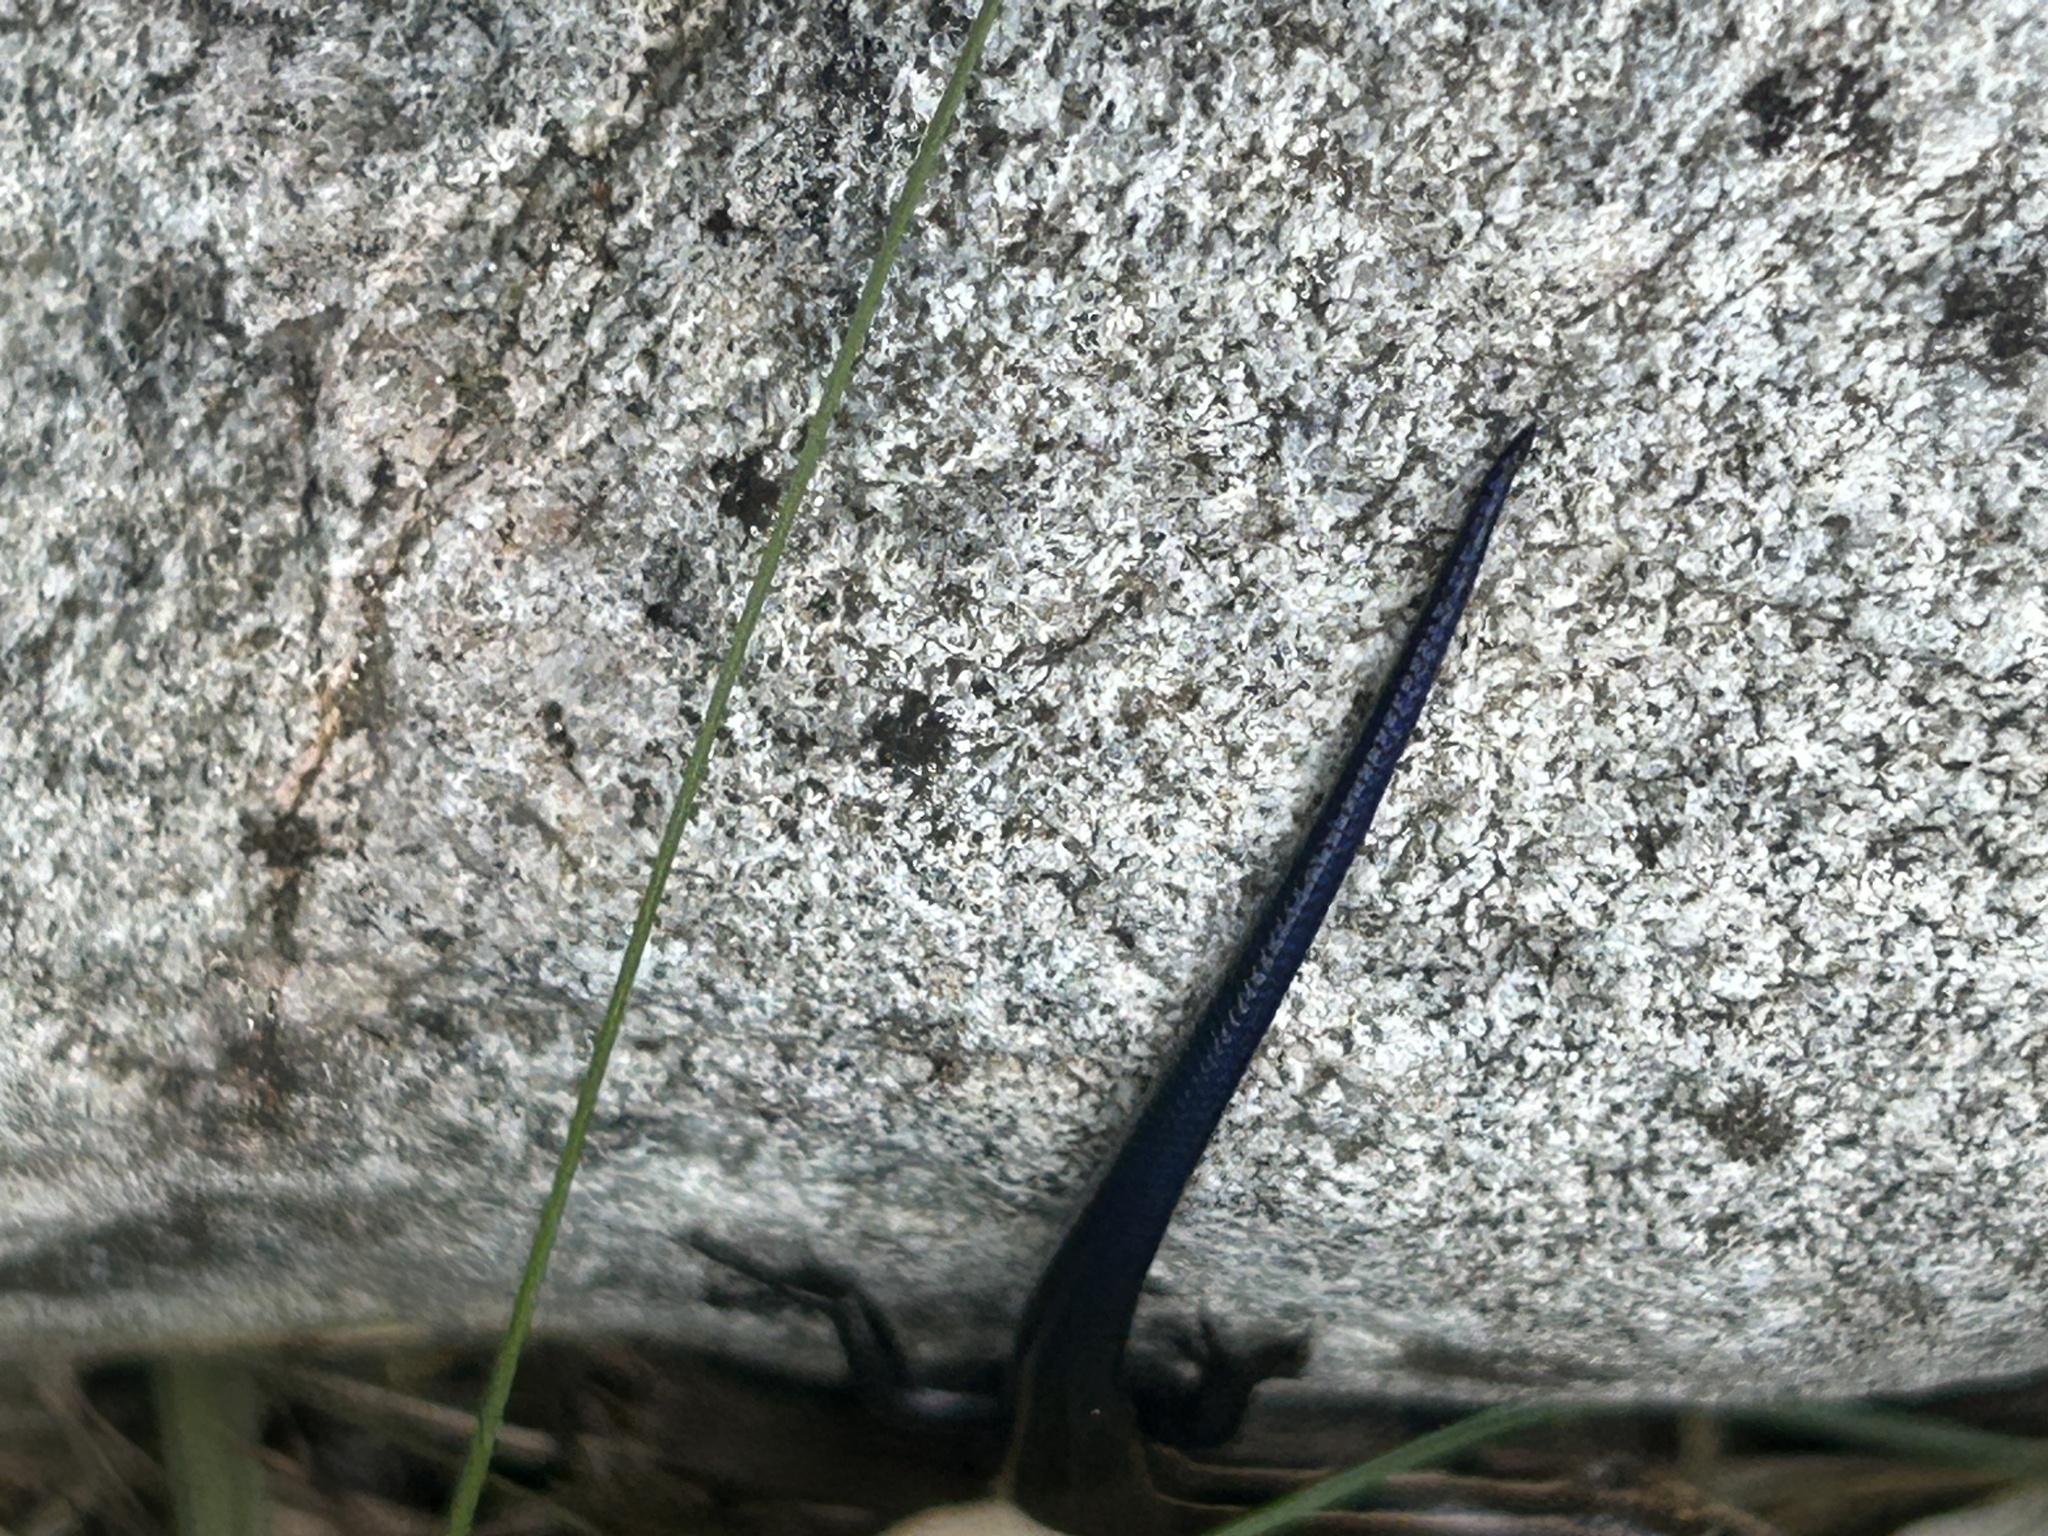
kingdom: Animalia
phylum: Chordata
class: Squamata
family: Scincidae
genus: Plestiodon
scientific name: Plestiodon septentrionalis
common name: Northern prairie skink
